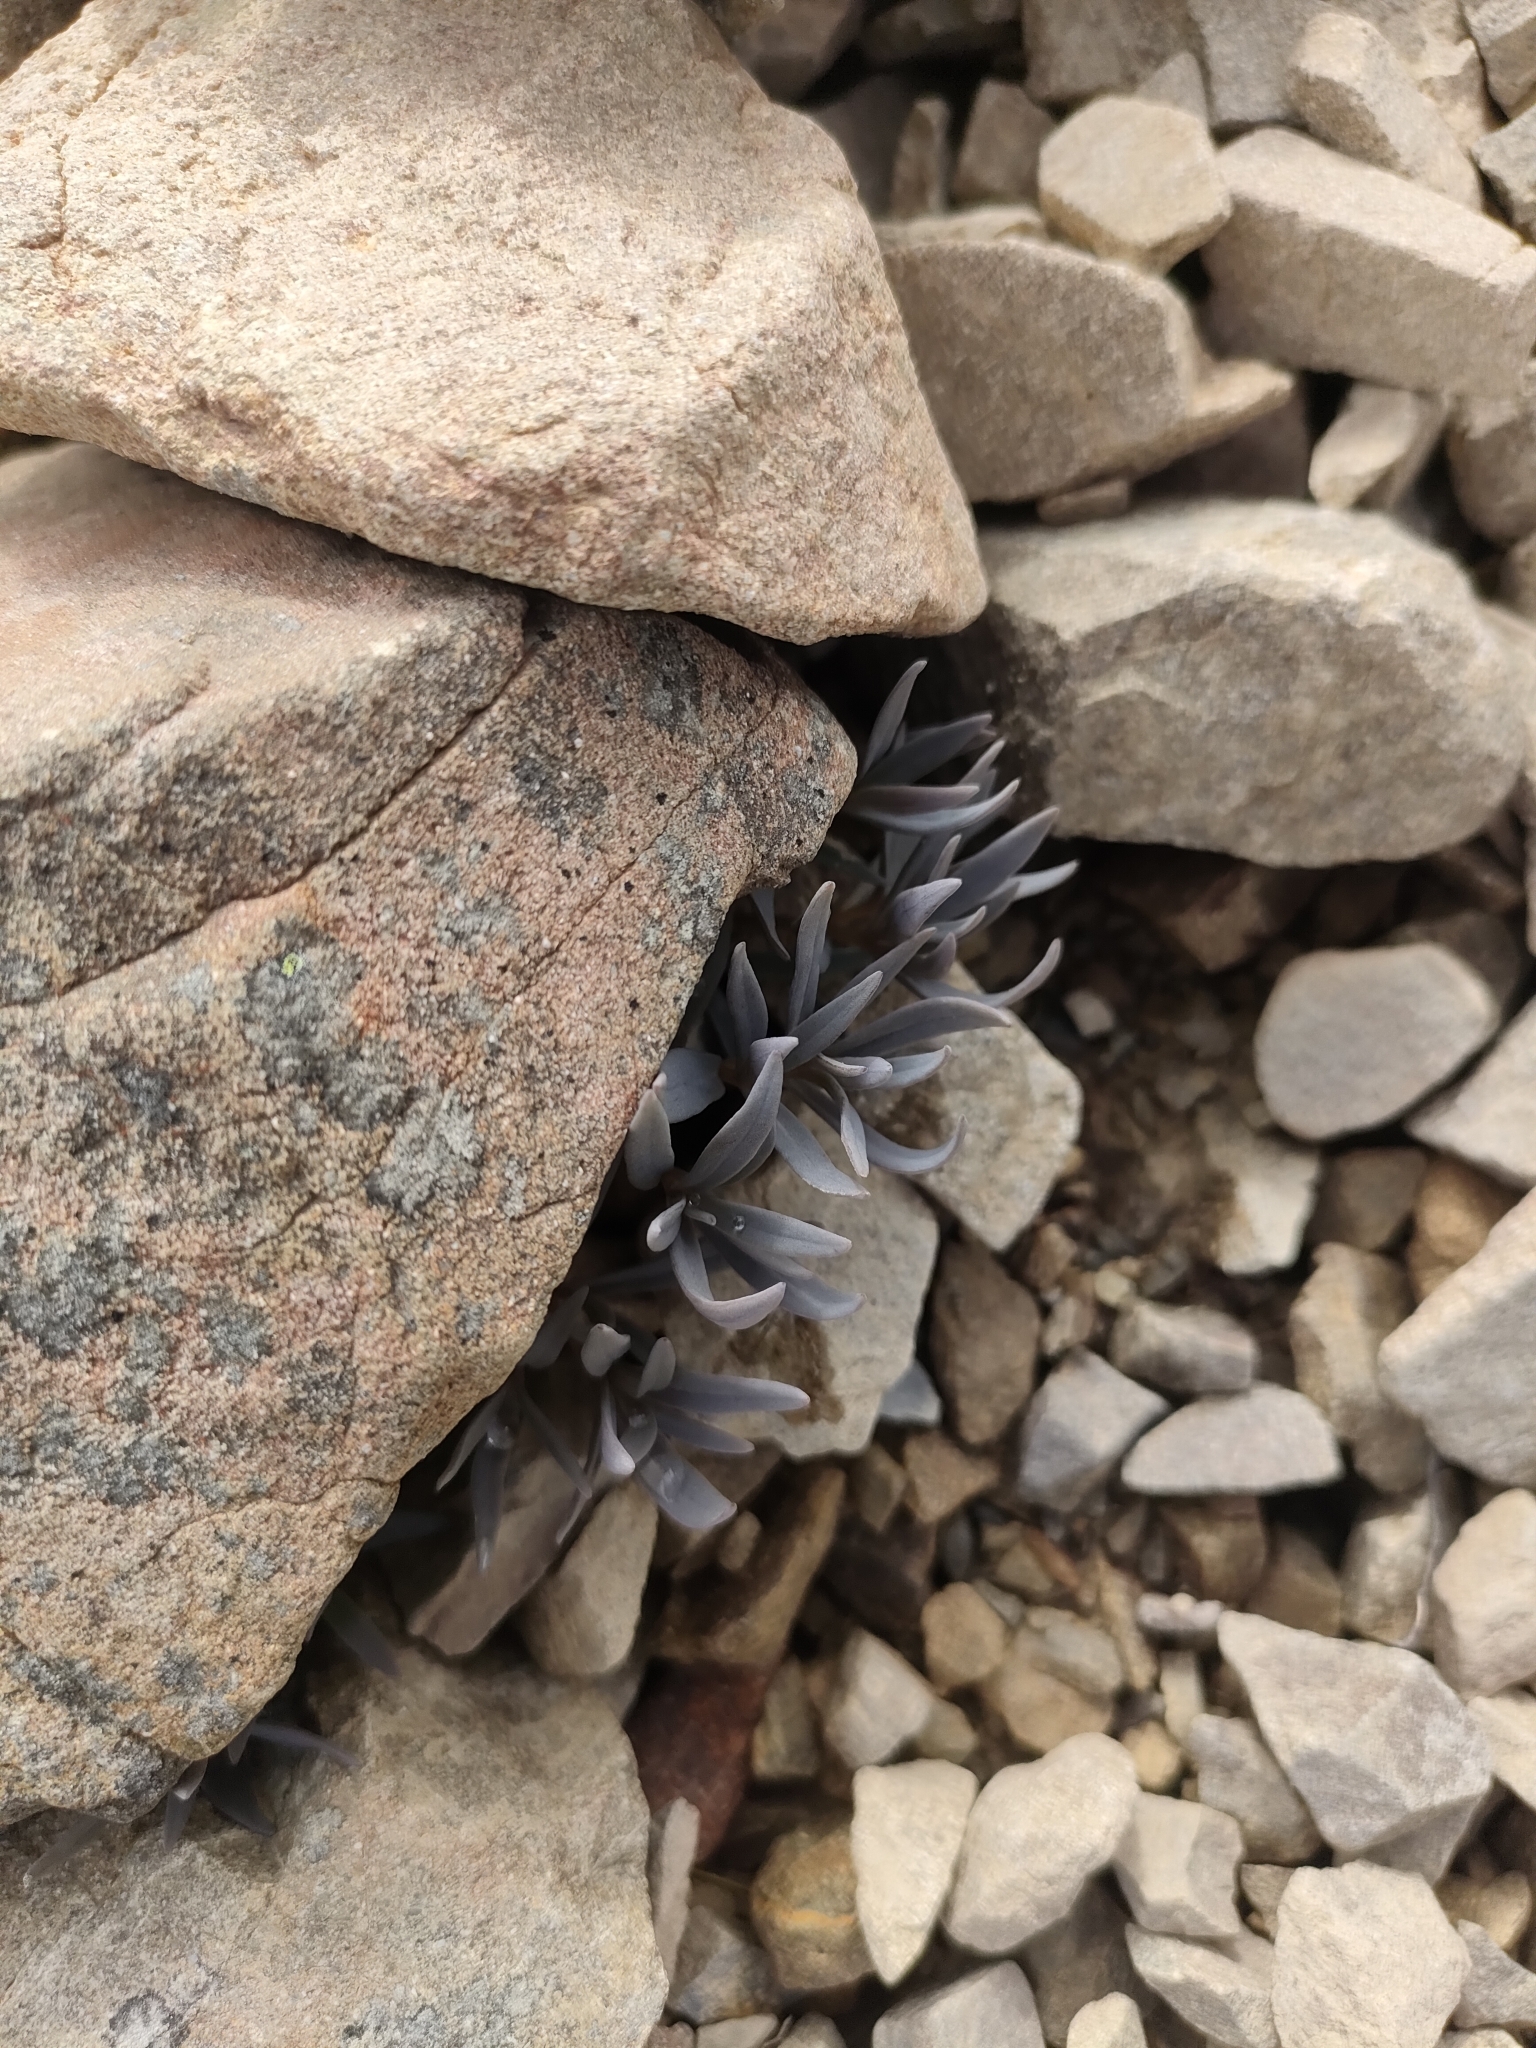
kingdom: Plantae
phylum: Tracheophyta
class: Magnoliopsida
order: Caryophyllales
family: Caryophyllaceae
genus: Stellaria
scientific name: Stellaria roughii
